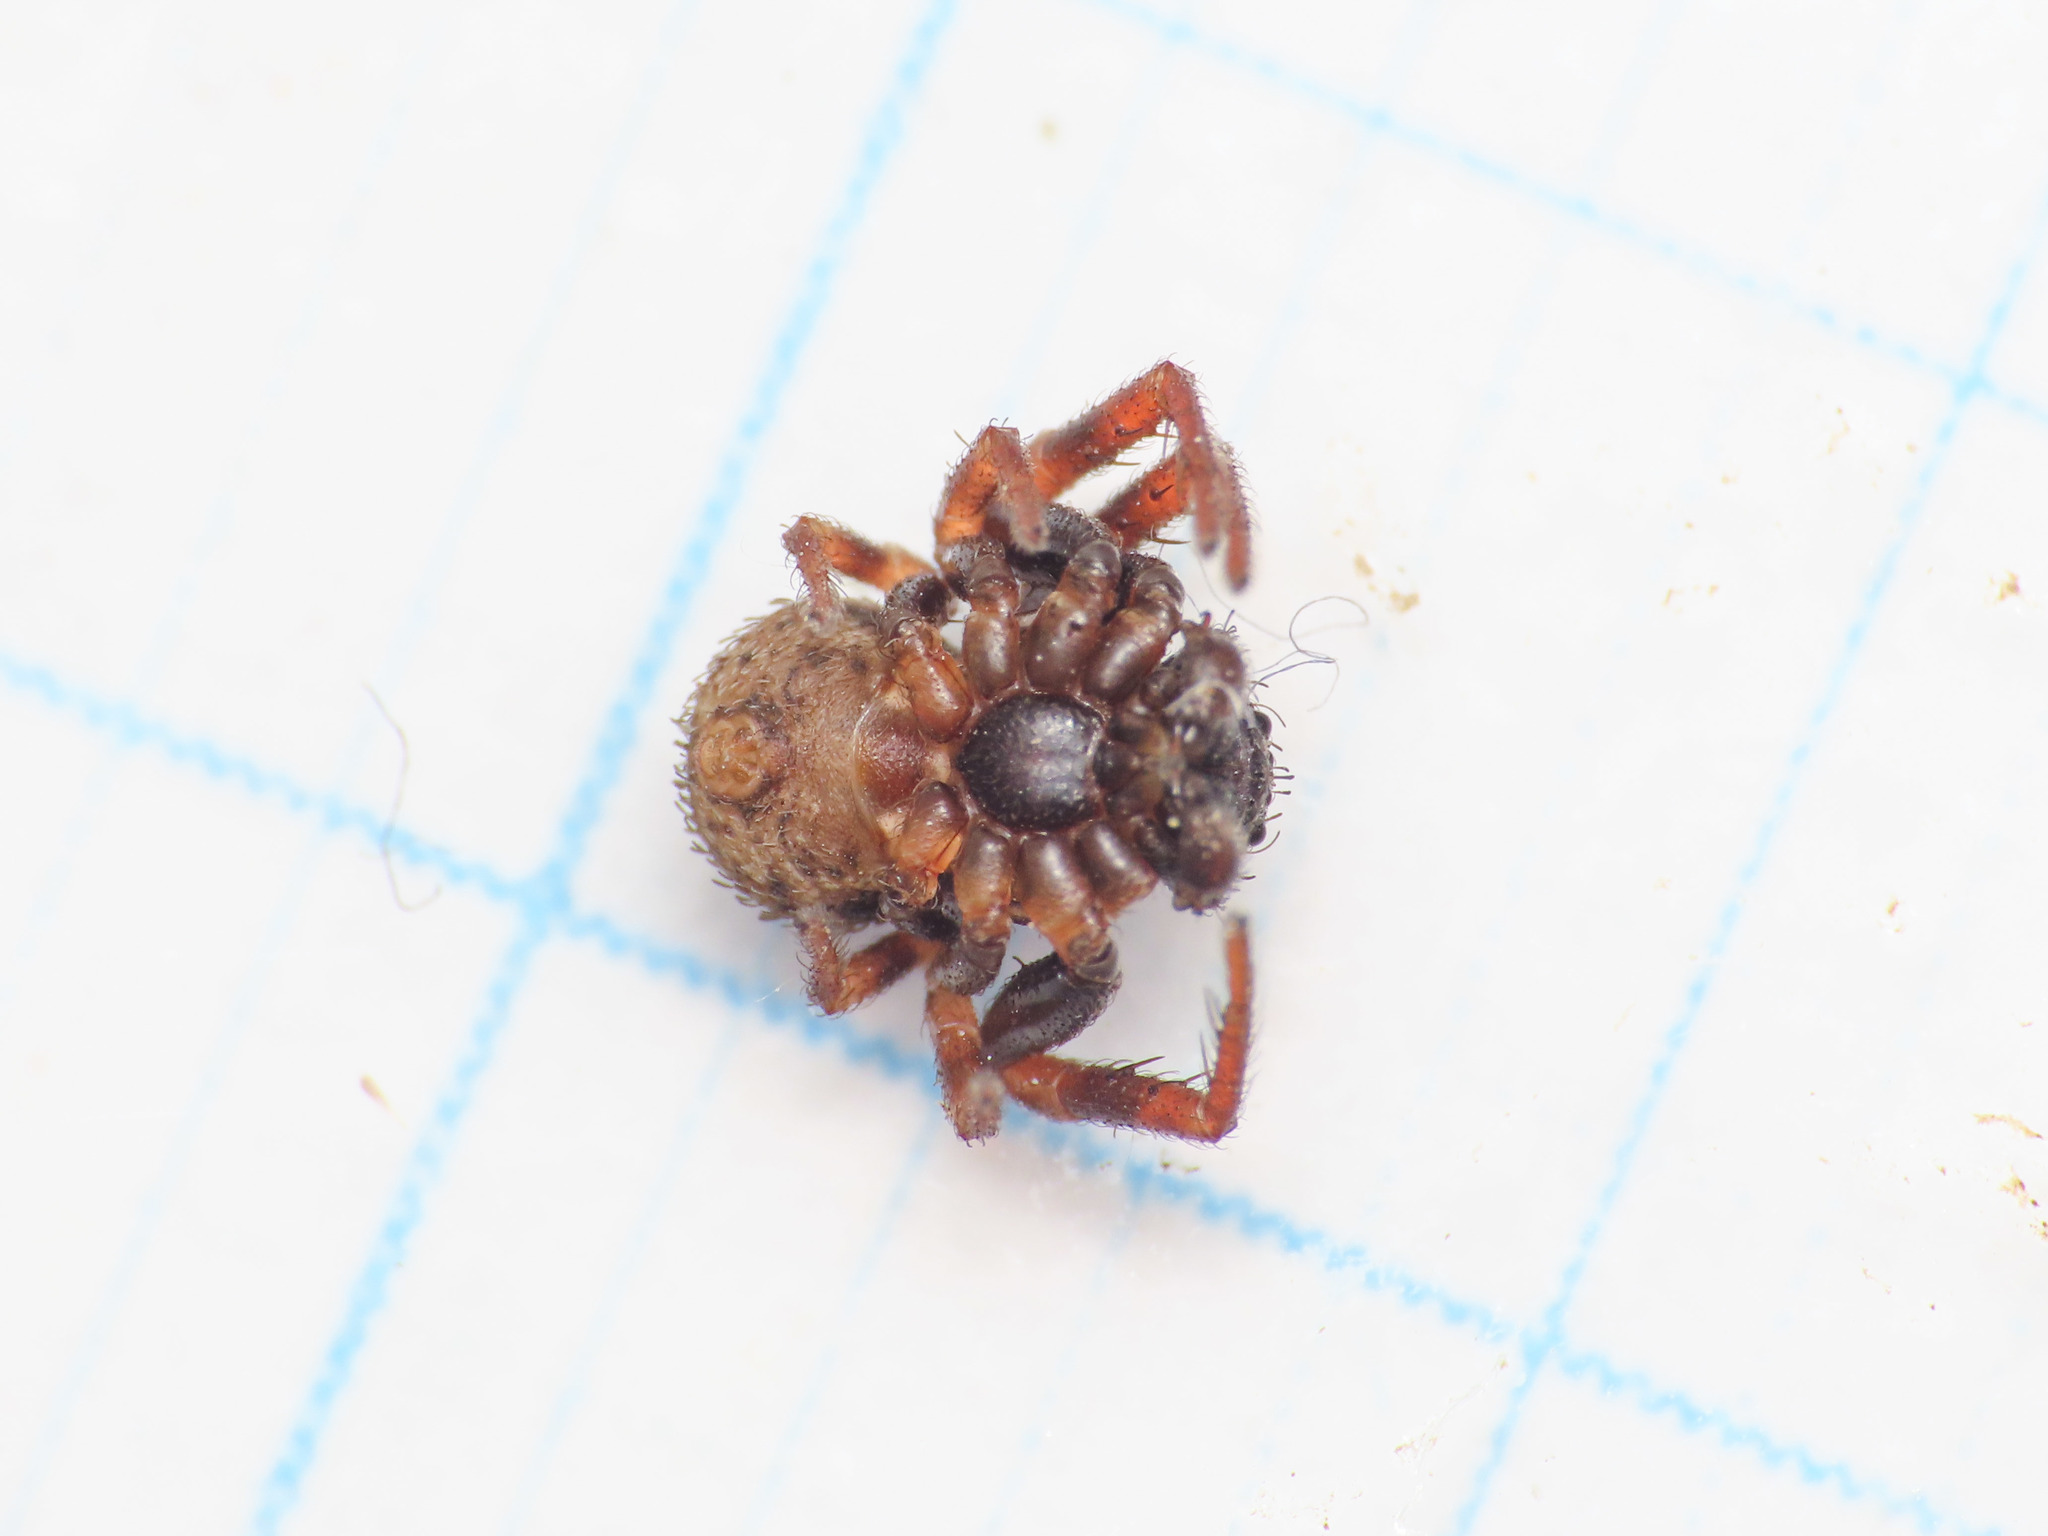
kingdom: Animalia
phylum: Arthropoda
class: Arachnida
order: Araneae
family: Thomisidae
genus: Cozyptila
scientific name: Cozyptila blackwalli
